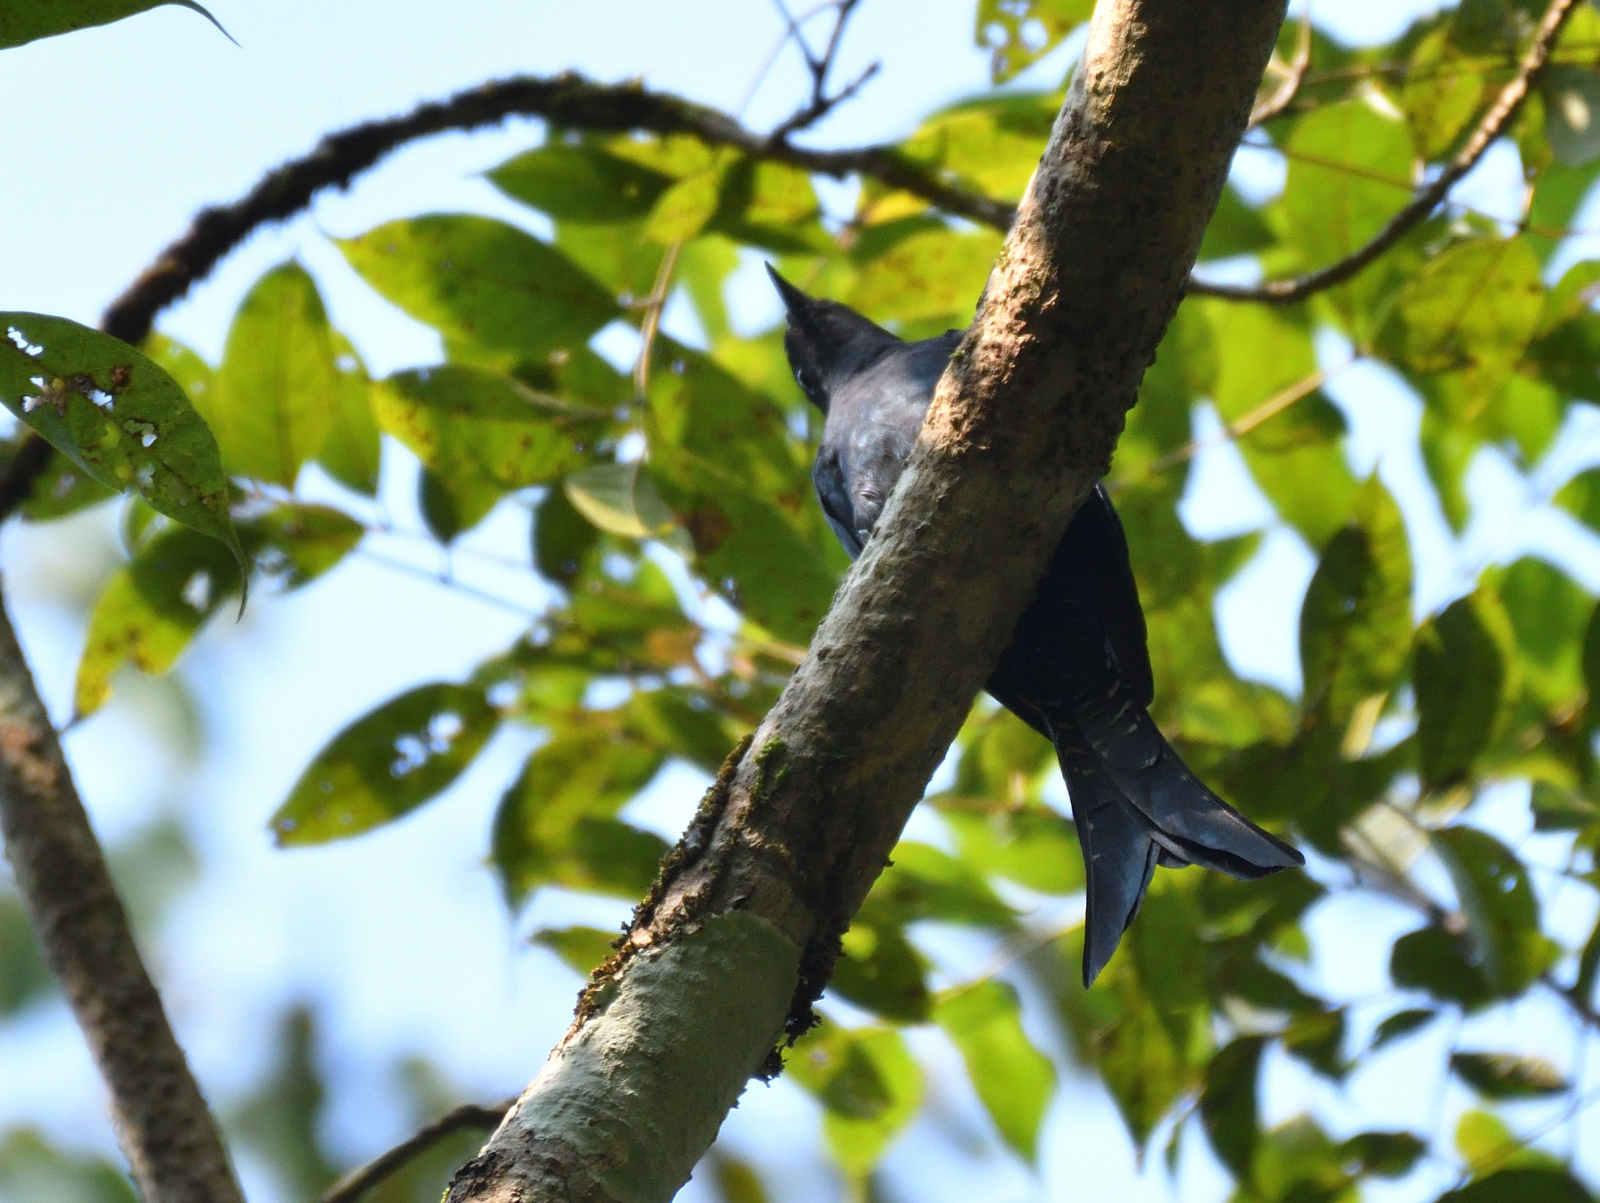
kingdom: Animalia
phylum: Chordata
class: Aves
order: Cuculiformes
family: Cuculidae
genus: Surniculus
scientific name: Surniculus lugubris
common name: Square-tailed drongo-cuckoo
